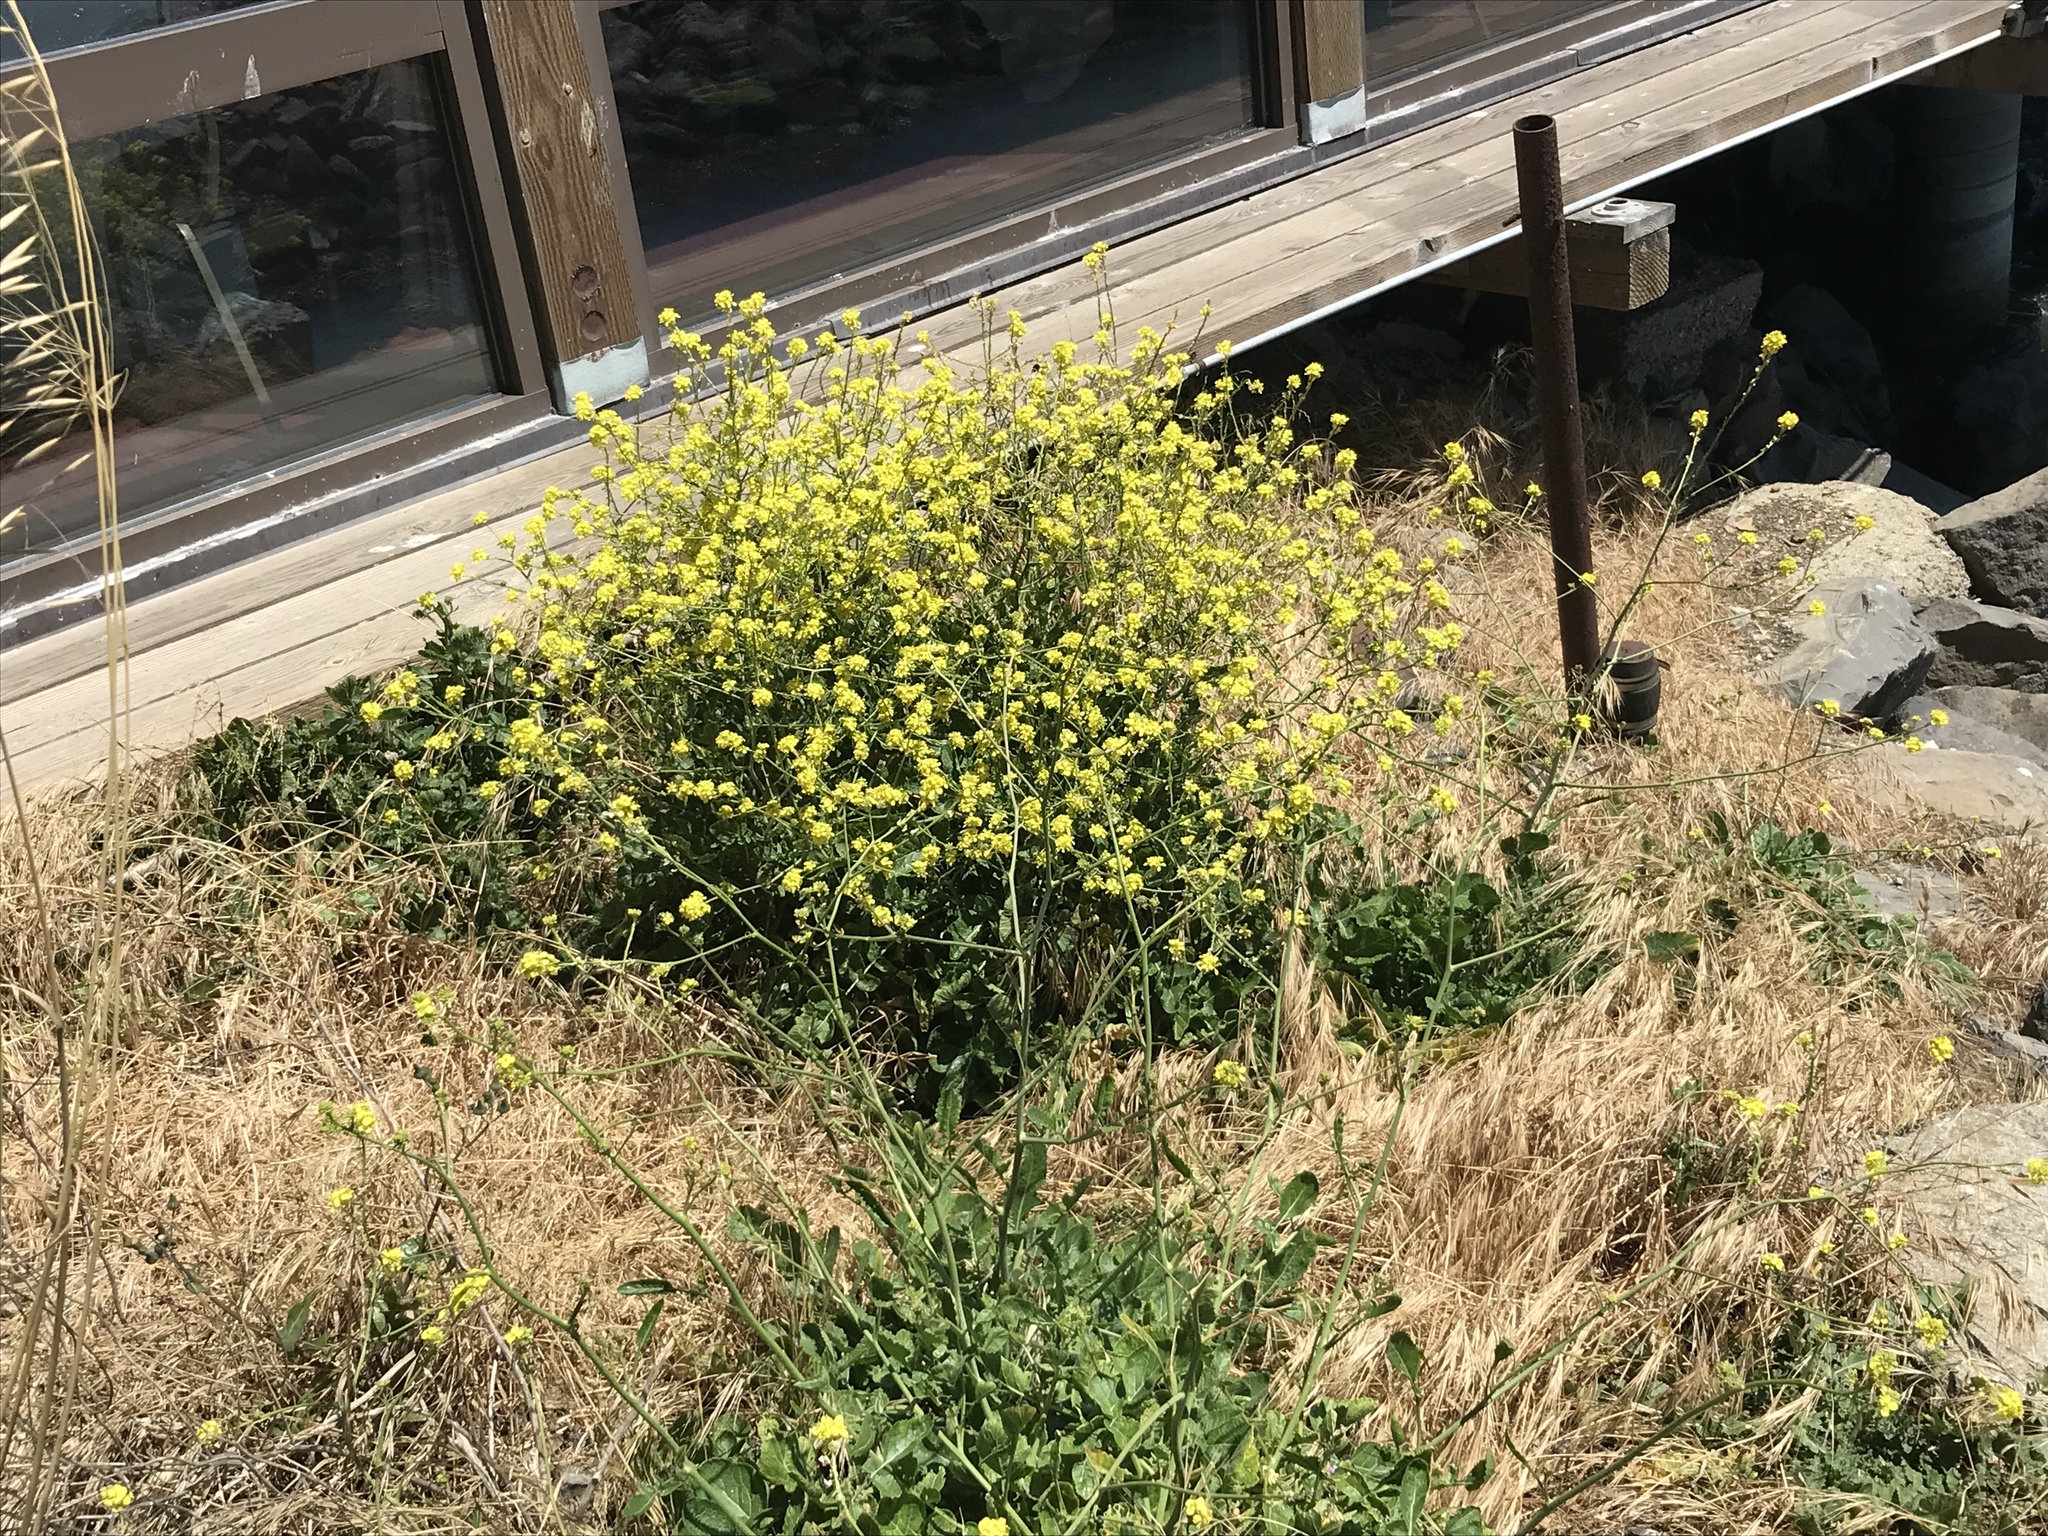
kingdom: Plantae
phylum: Tracheophyta
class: Magnoliopsida
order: Brassicales
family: Brassicaceae
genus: Hirschfeldia
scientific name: Hirschfeldia incana
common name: Hoary mustard
